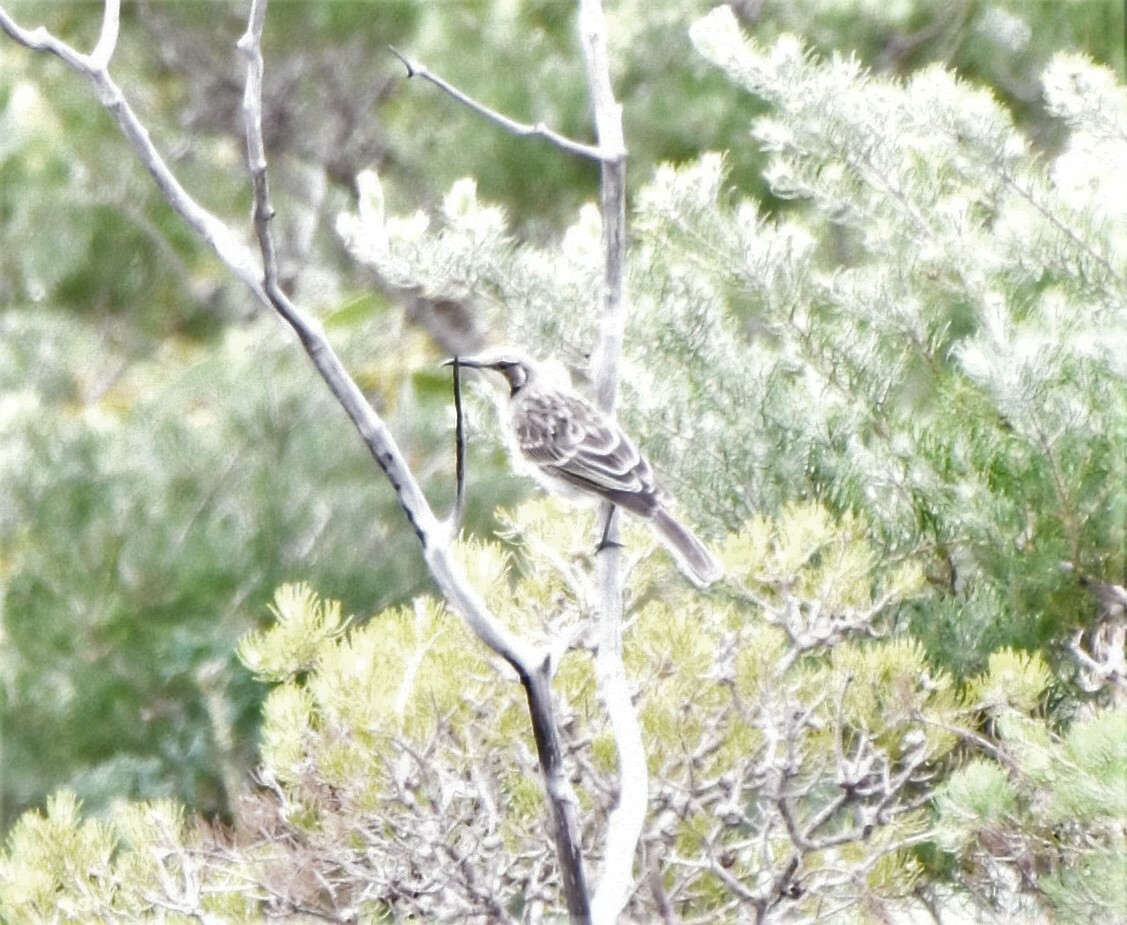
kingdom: Animalia
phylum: Chordata
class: Aves
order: Passeriformes
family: Meliphagidae
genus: Gliciphila
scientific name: Gliciphila melanops
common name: Tawny-crowned honeyeater
